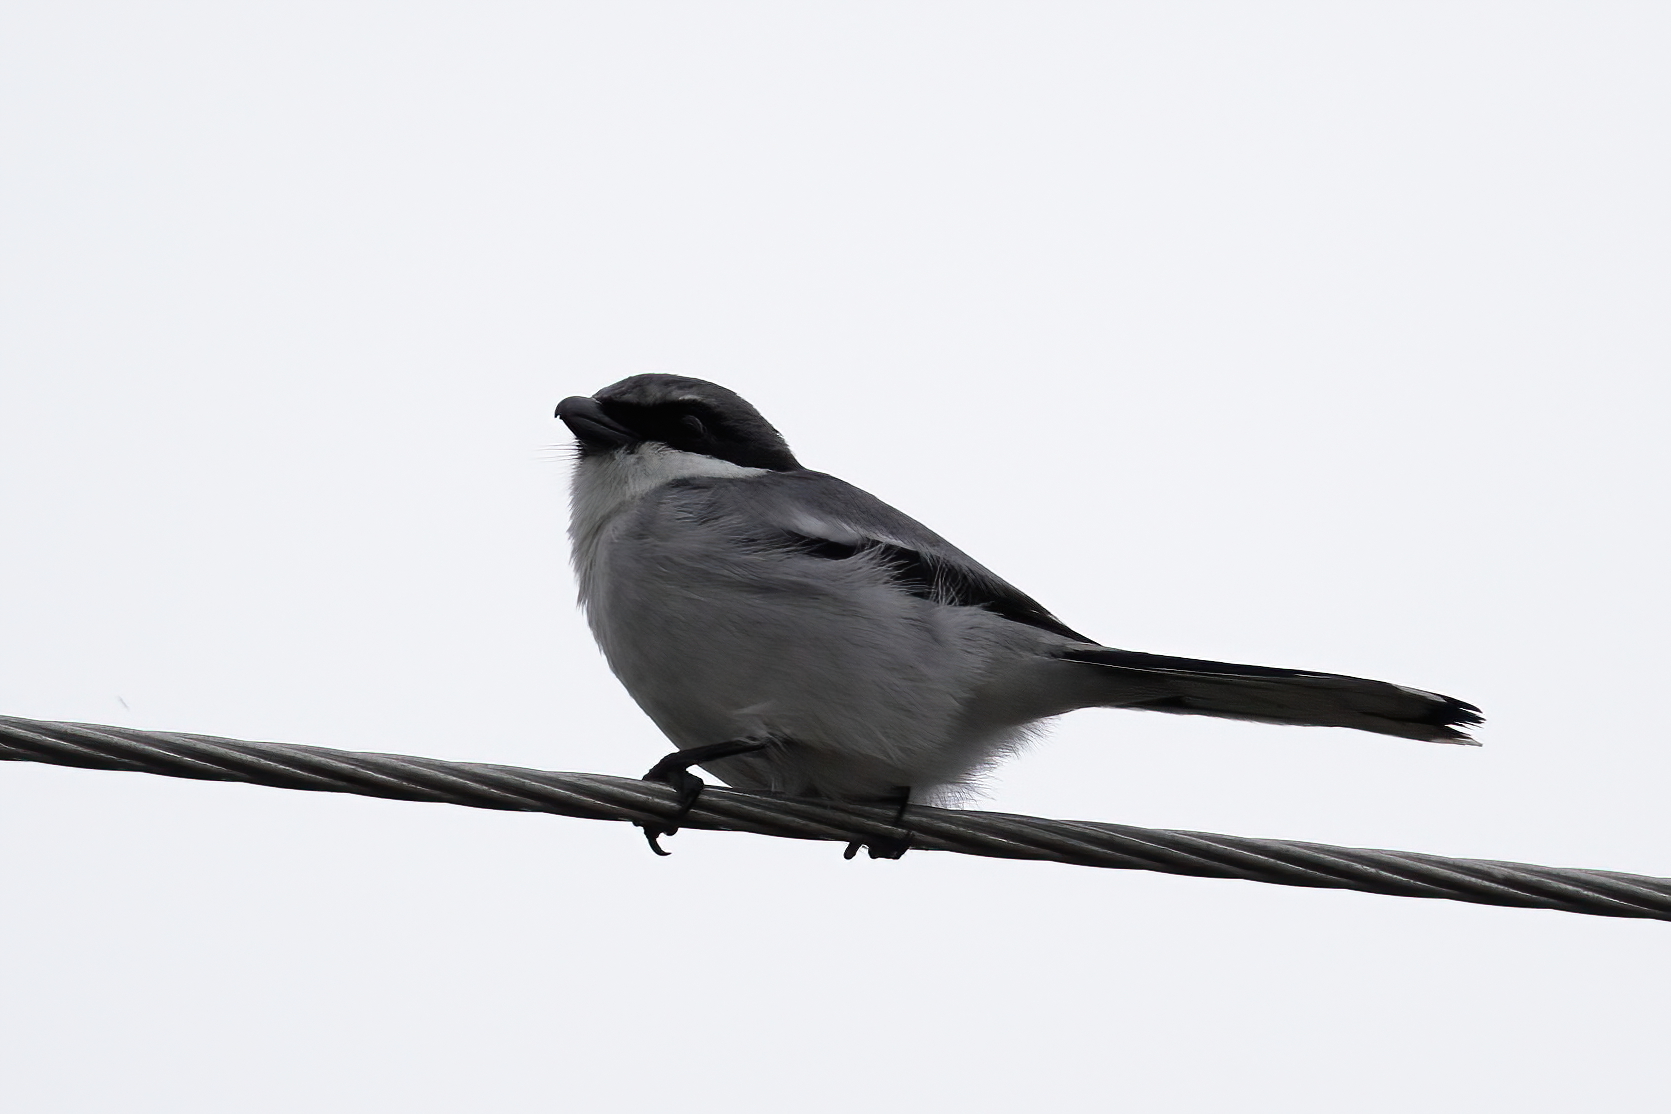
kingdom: Animalia
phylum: Chordata
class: Aves
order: Passeriformes
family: Laniidae
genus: Lanius
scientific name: Lanius ludovicianus
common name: Loggerhead shrike
